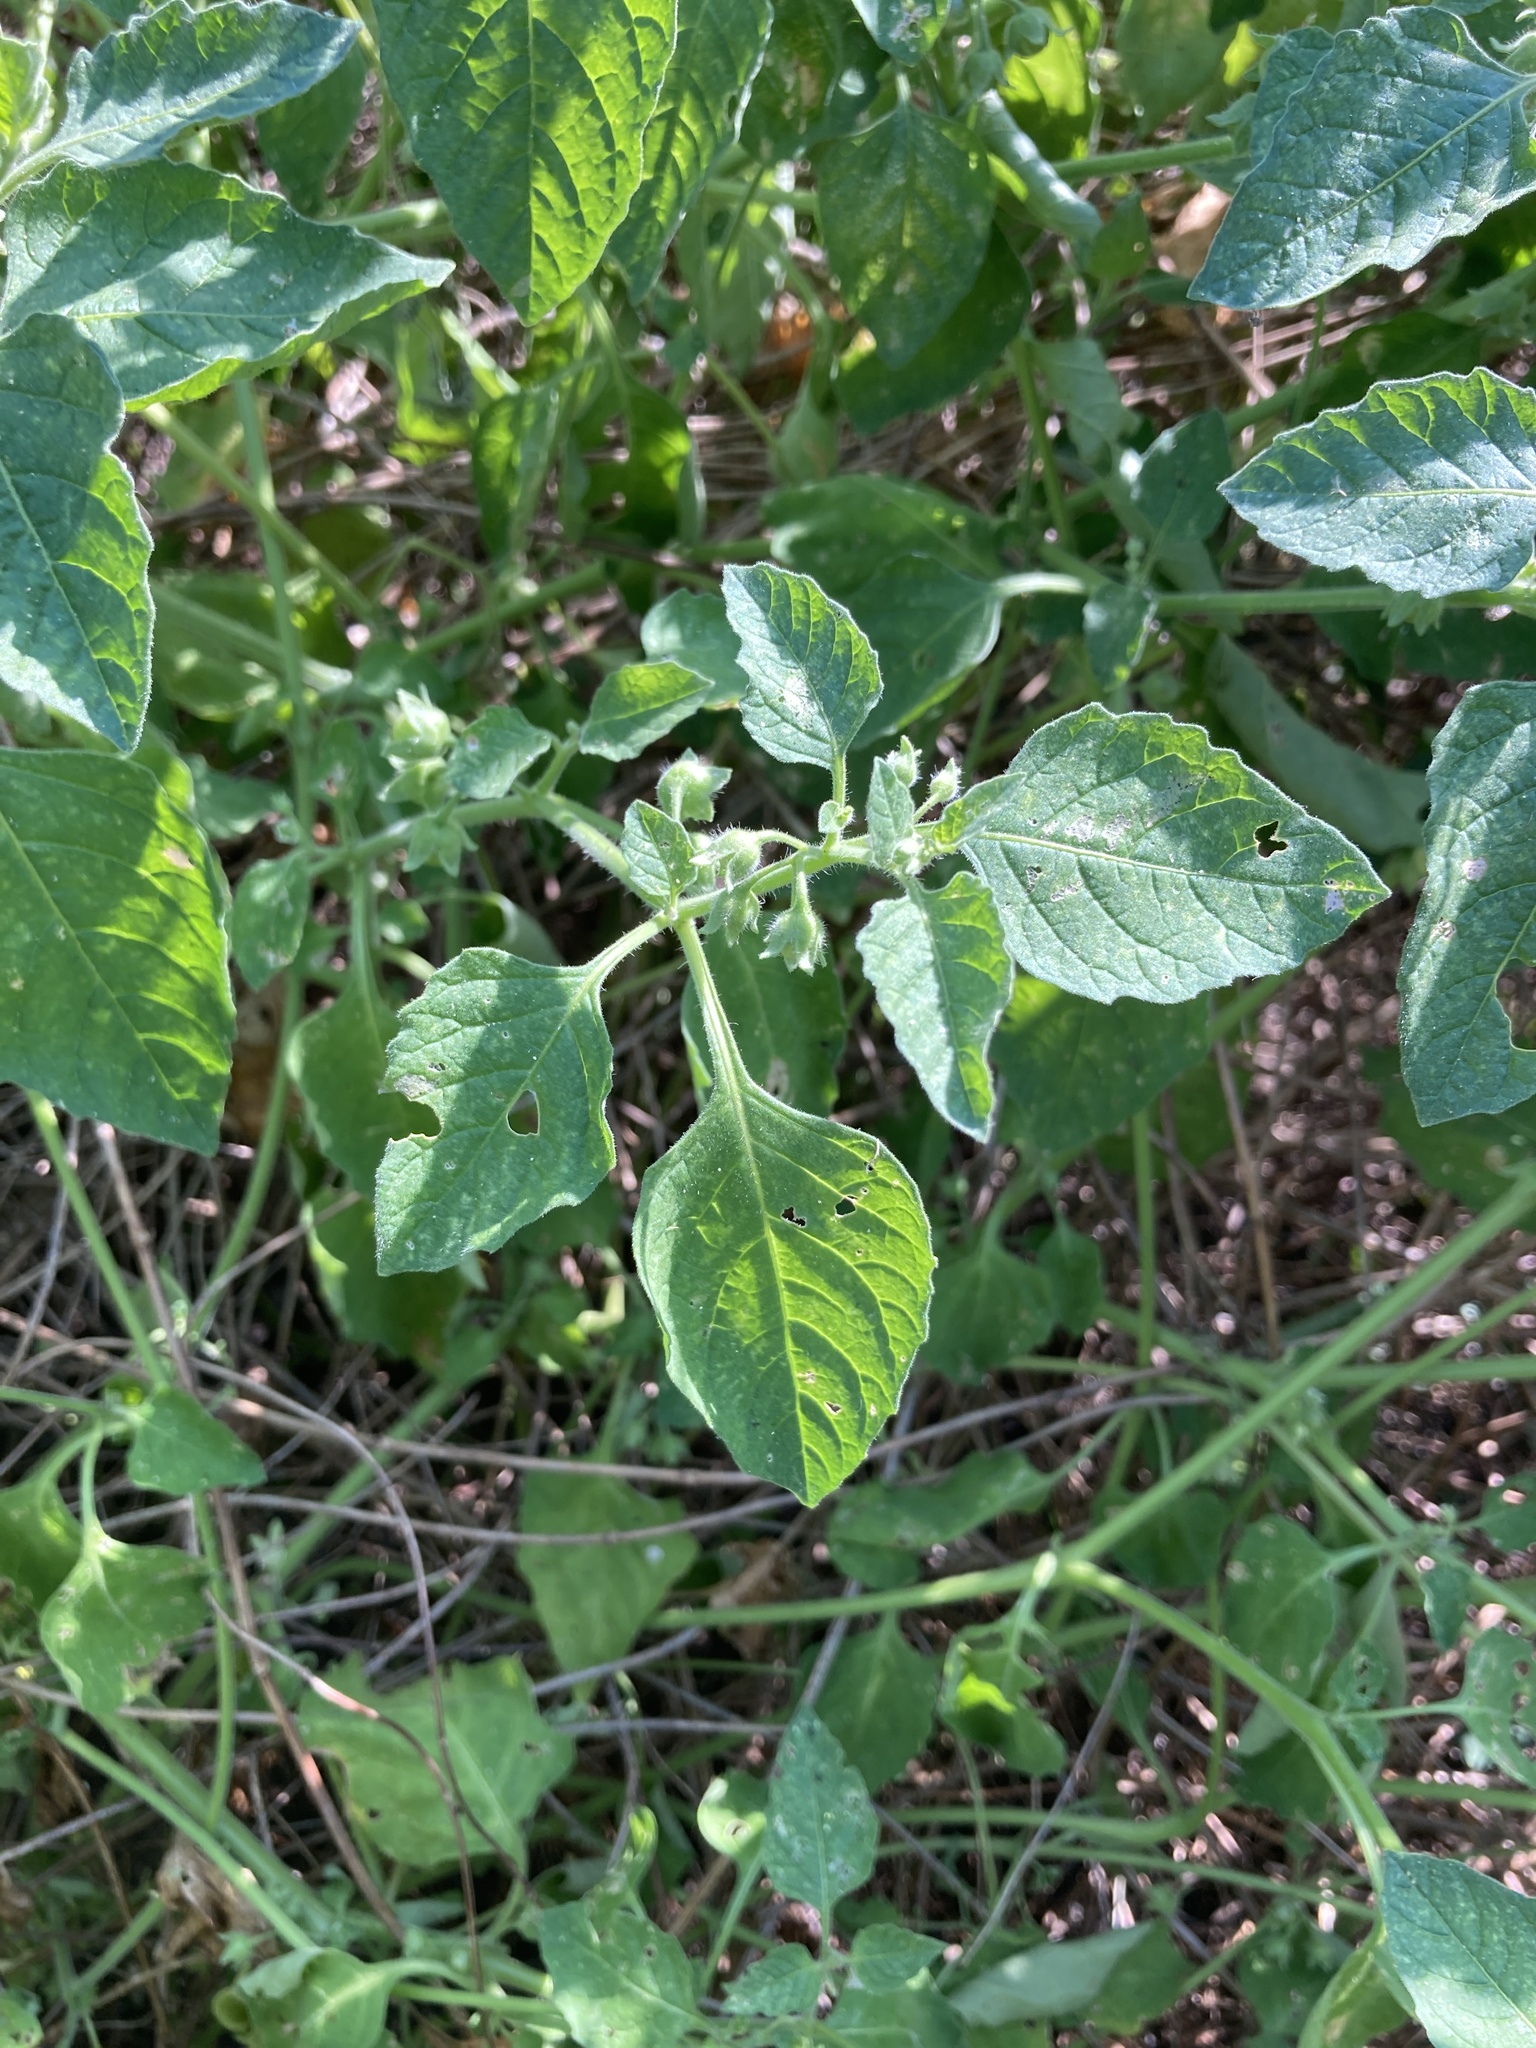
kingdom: Plantae
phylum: Tracheophyta
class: Magnoliopsida
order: Solanales
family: Solanaceae
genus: Solanum
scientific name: Solanum sarrachoides
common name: Leafy-fruited nightshade
